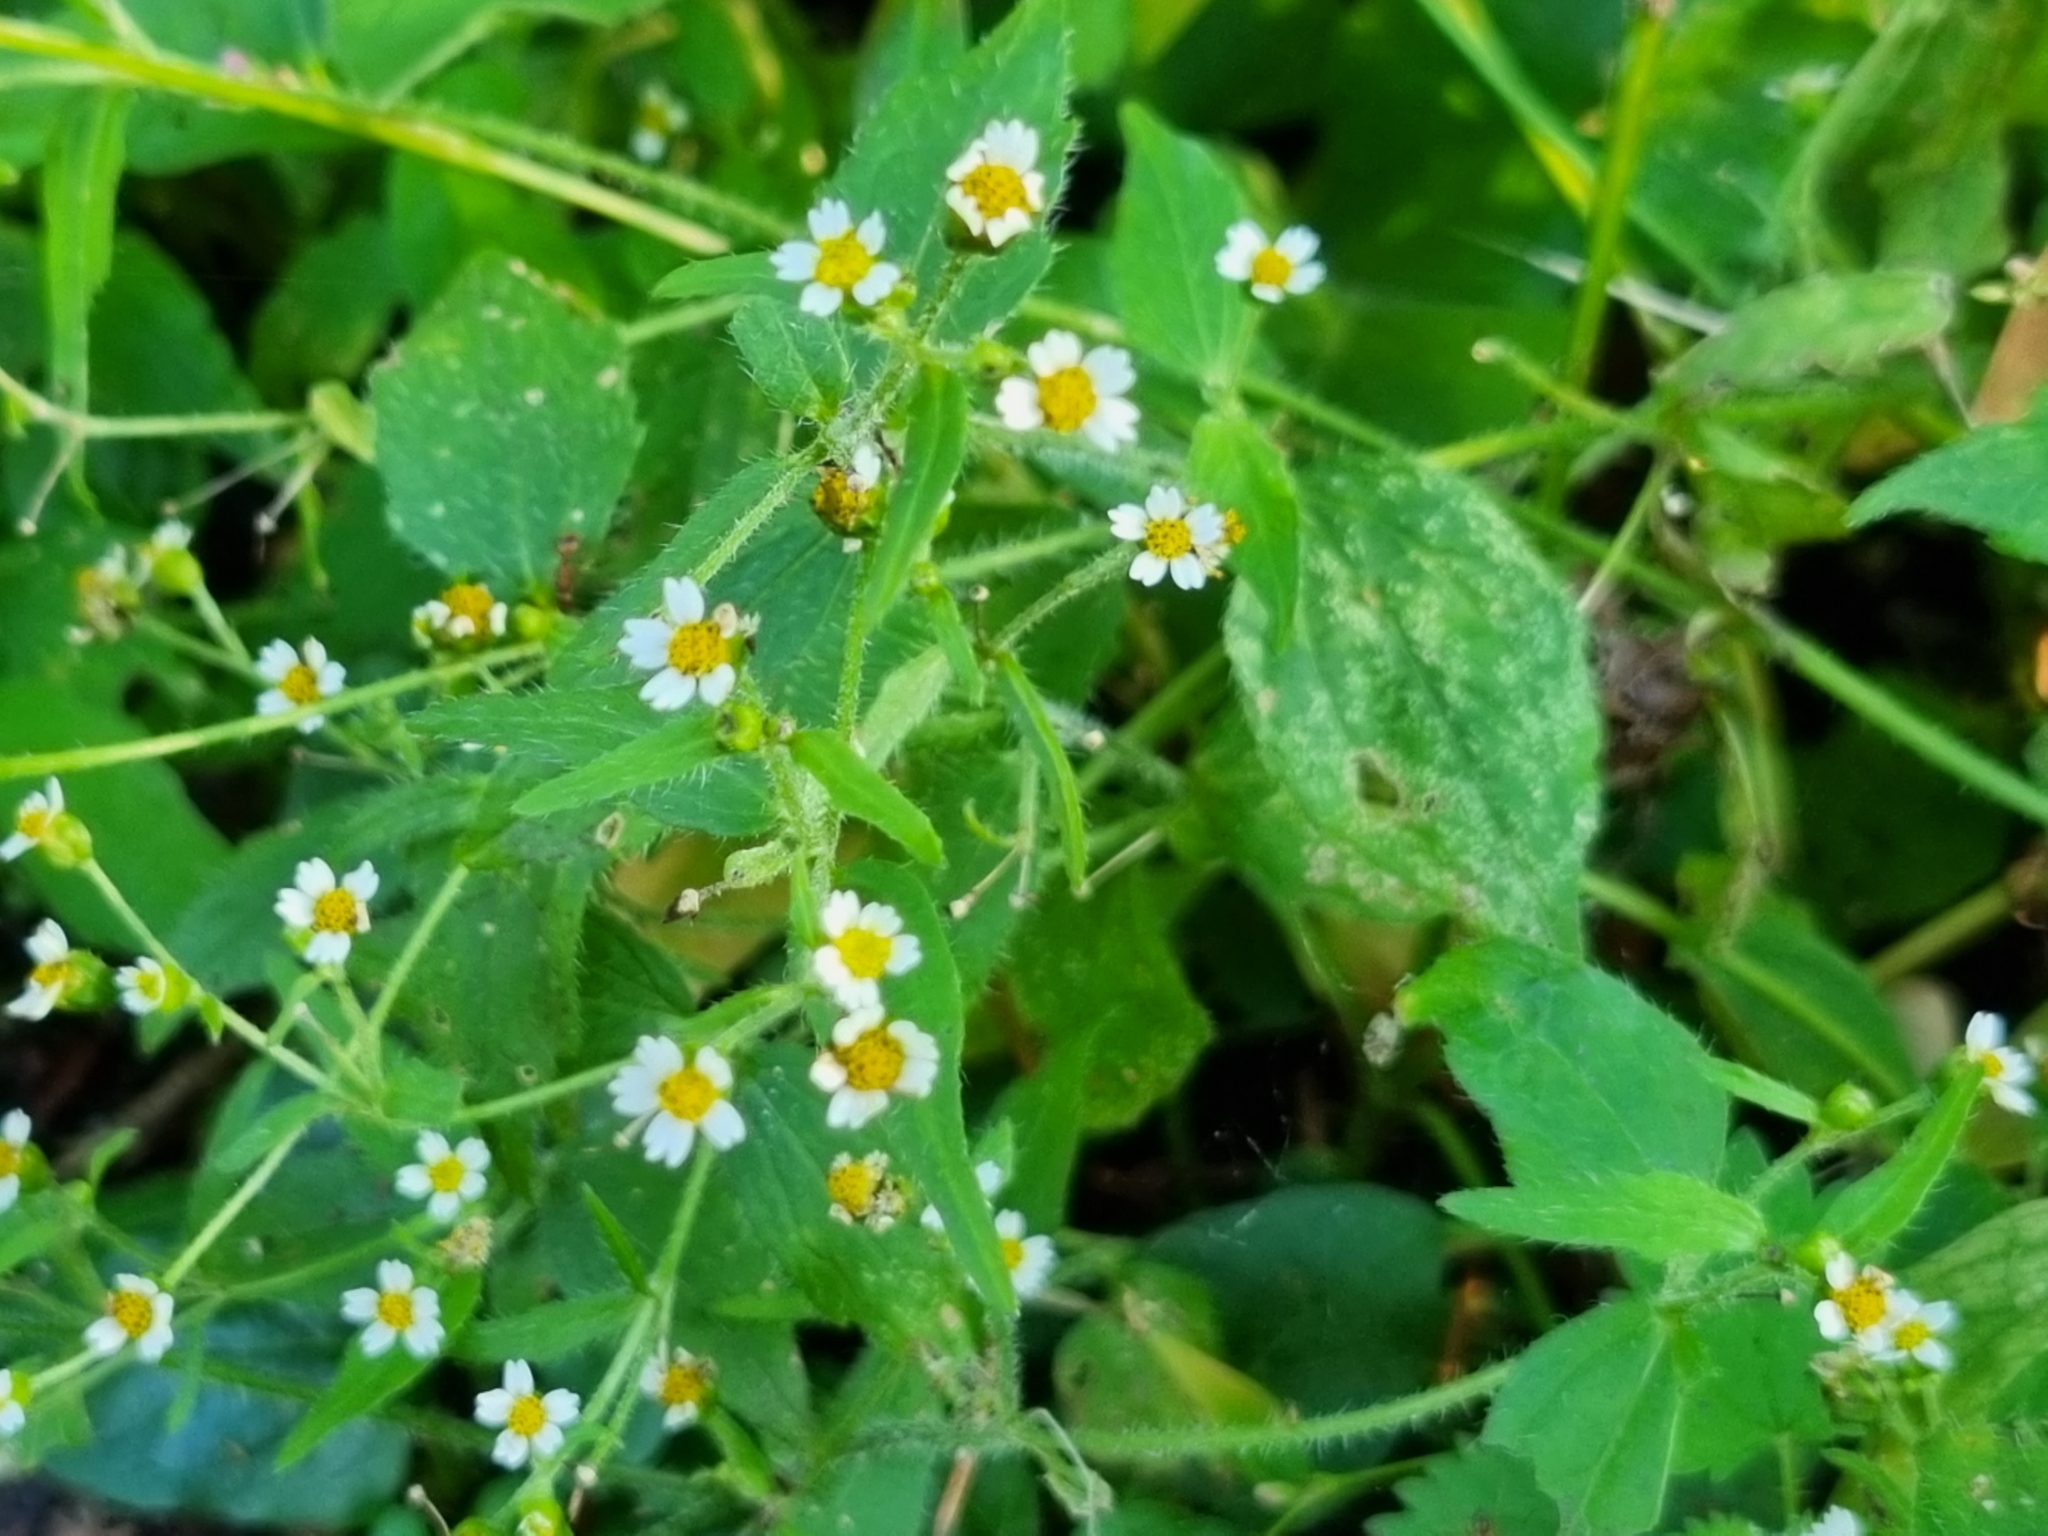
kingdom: Plantae
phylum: Tracheophyta
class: Magnoliopsida
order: Asterales
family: Asteraceae
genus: Galinsoga
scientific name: Galinsoga quadriradiata
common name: Shaggy soldier
